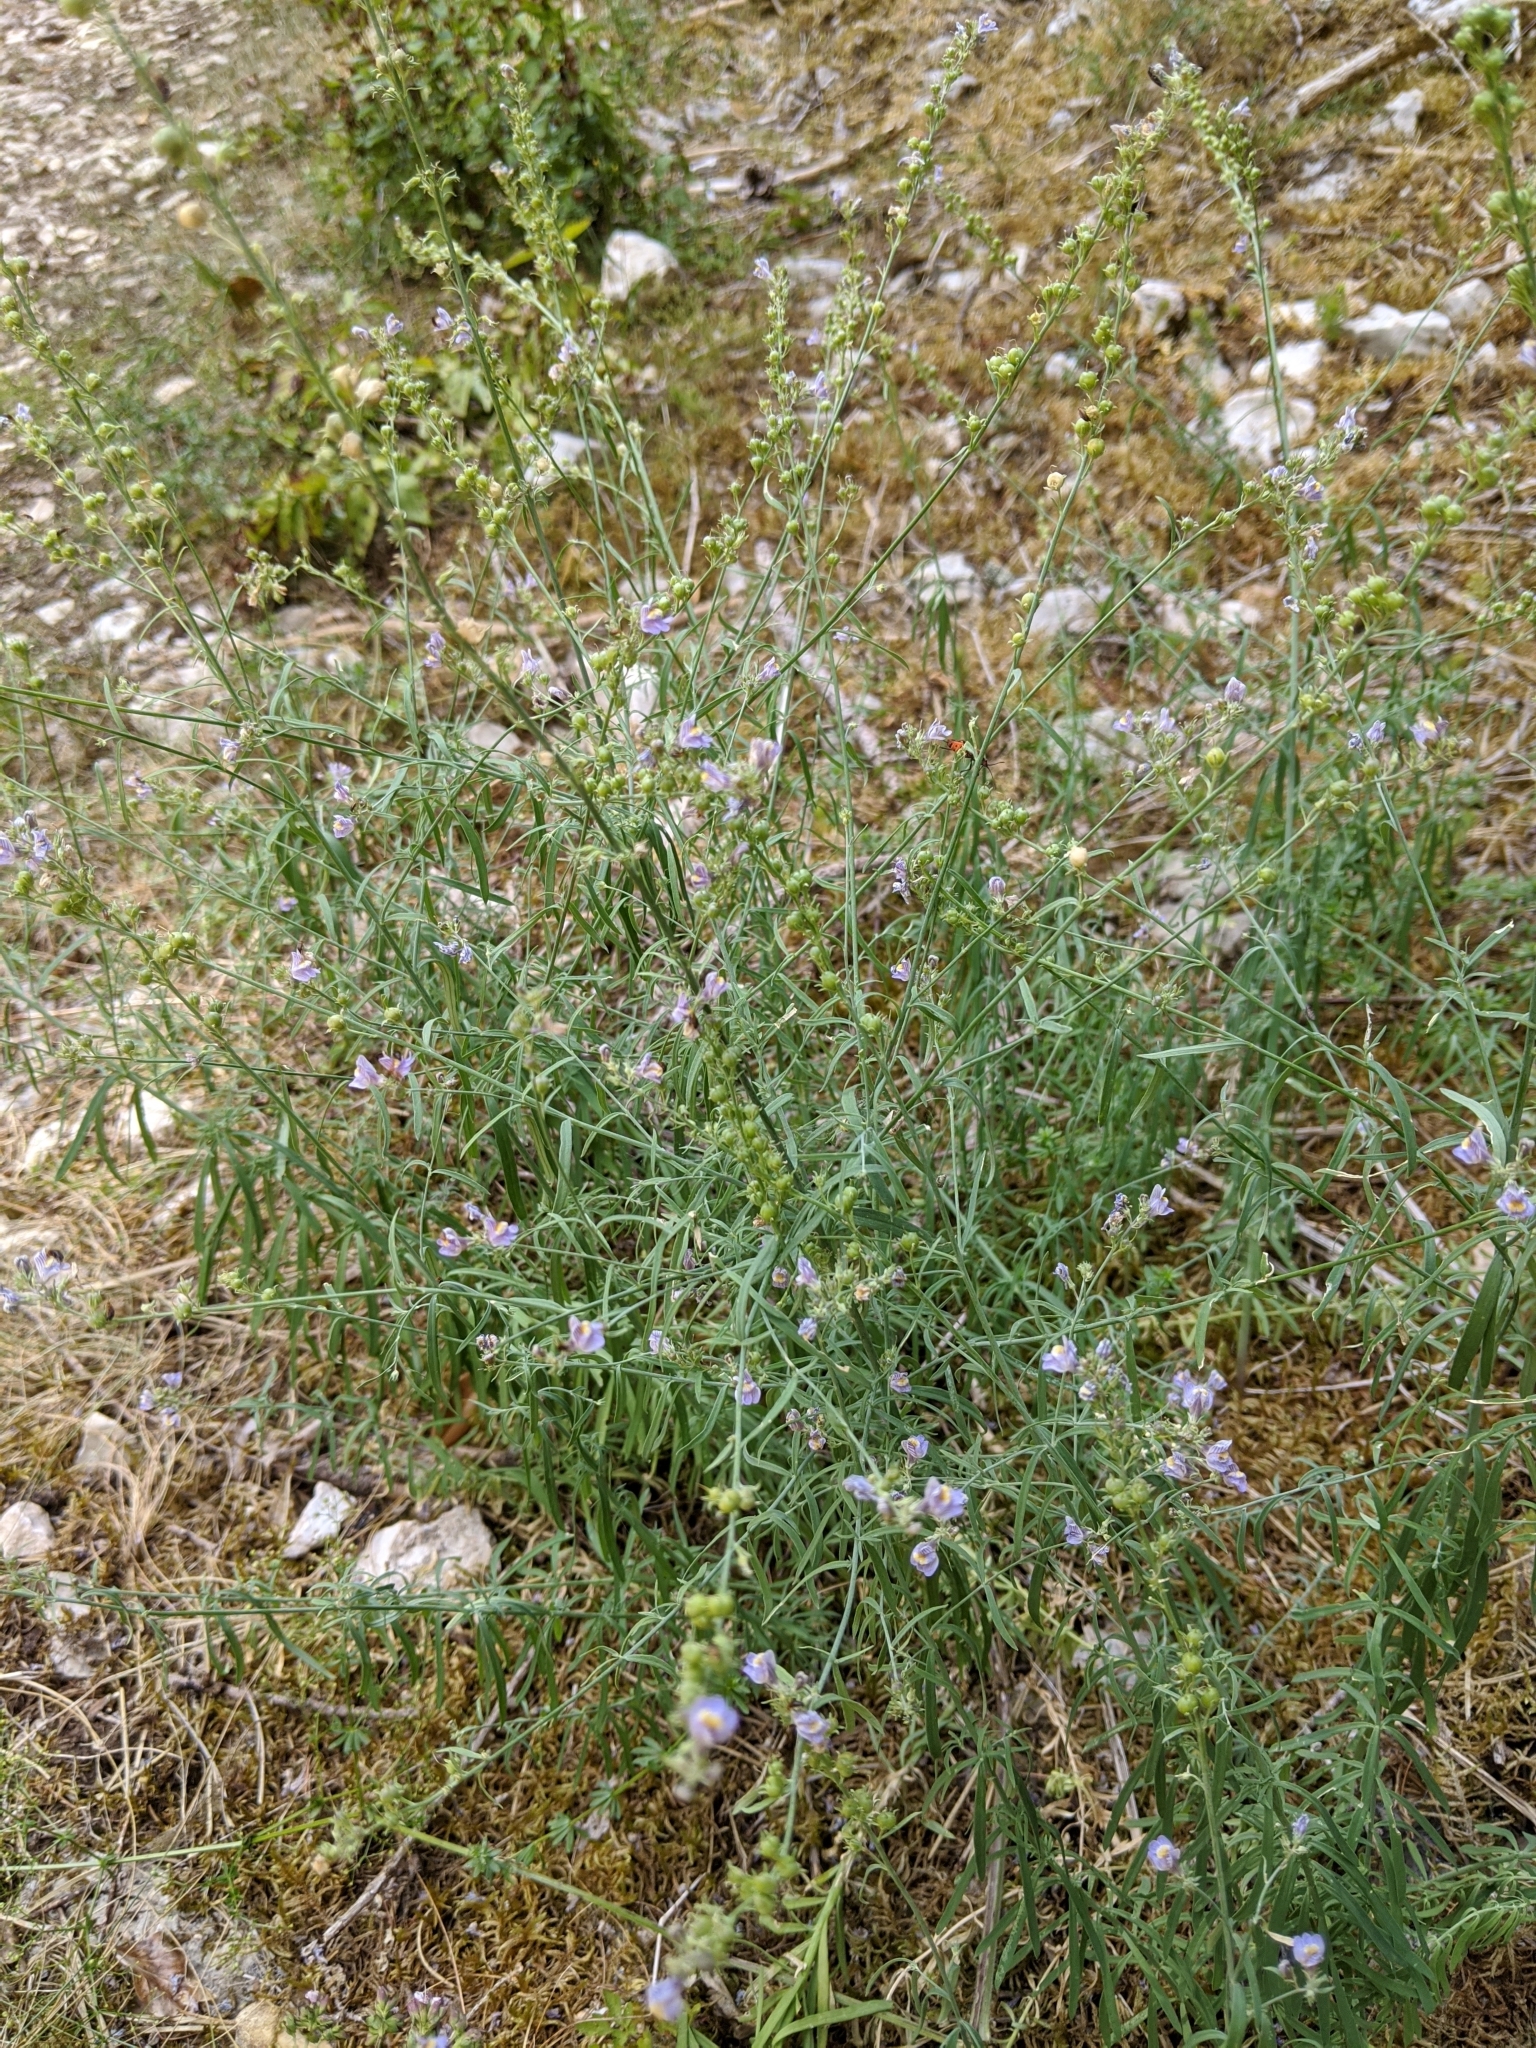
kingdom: Plantae
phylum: Tracheophyta
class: Magnoliopsida
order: Lamiales
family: Plantaginaceae
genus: Linaria
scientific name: Linaria repens
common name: Pale toadflax
